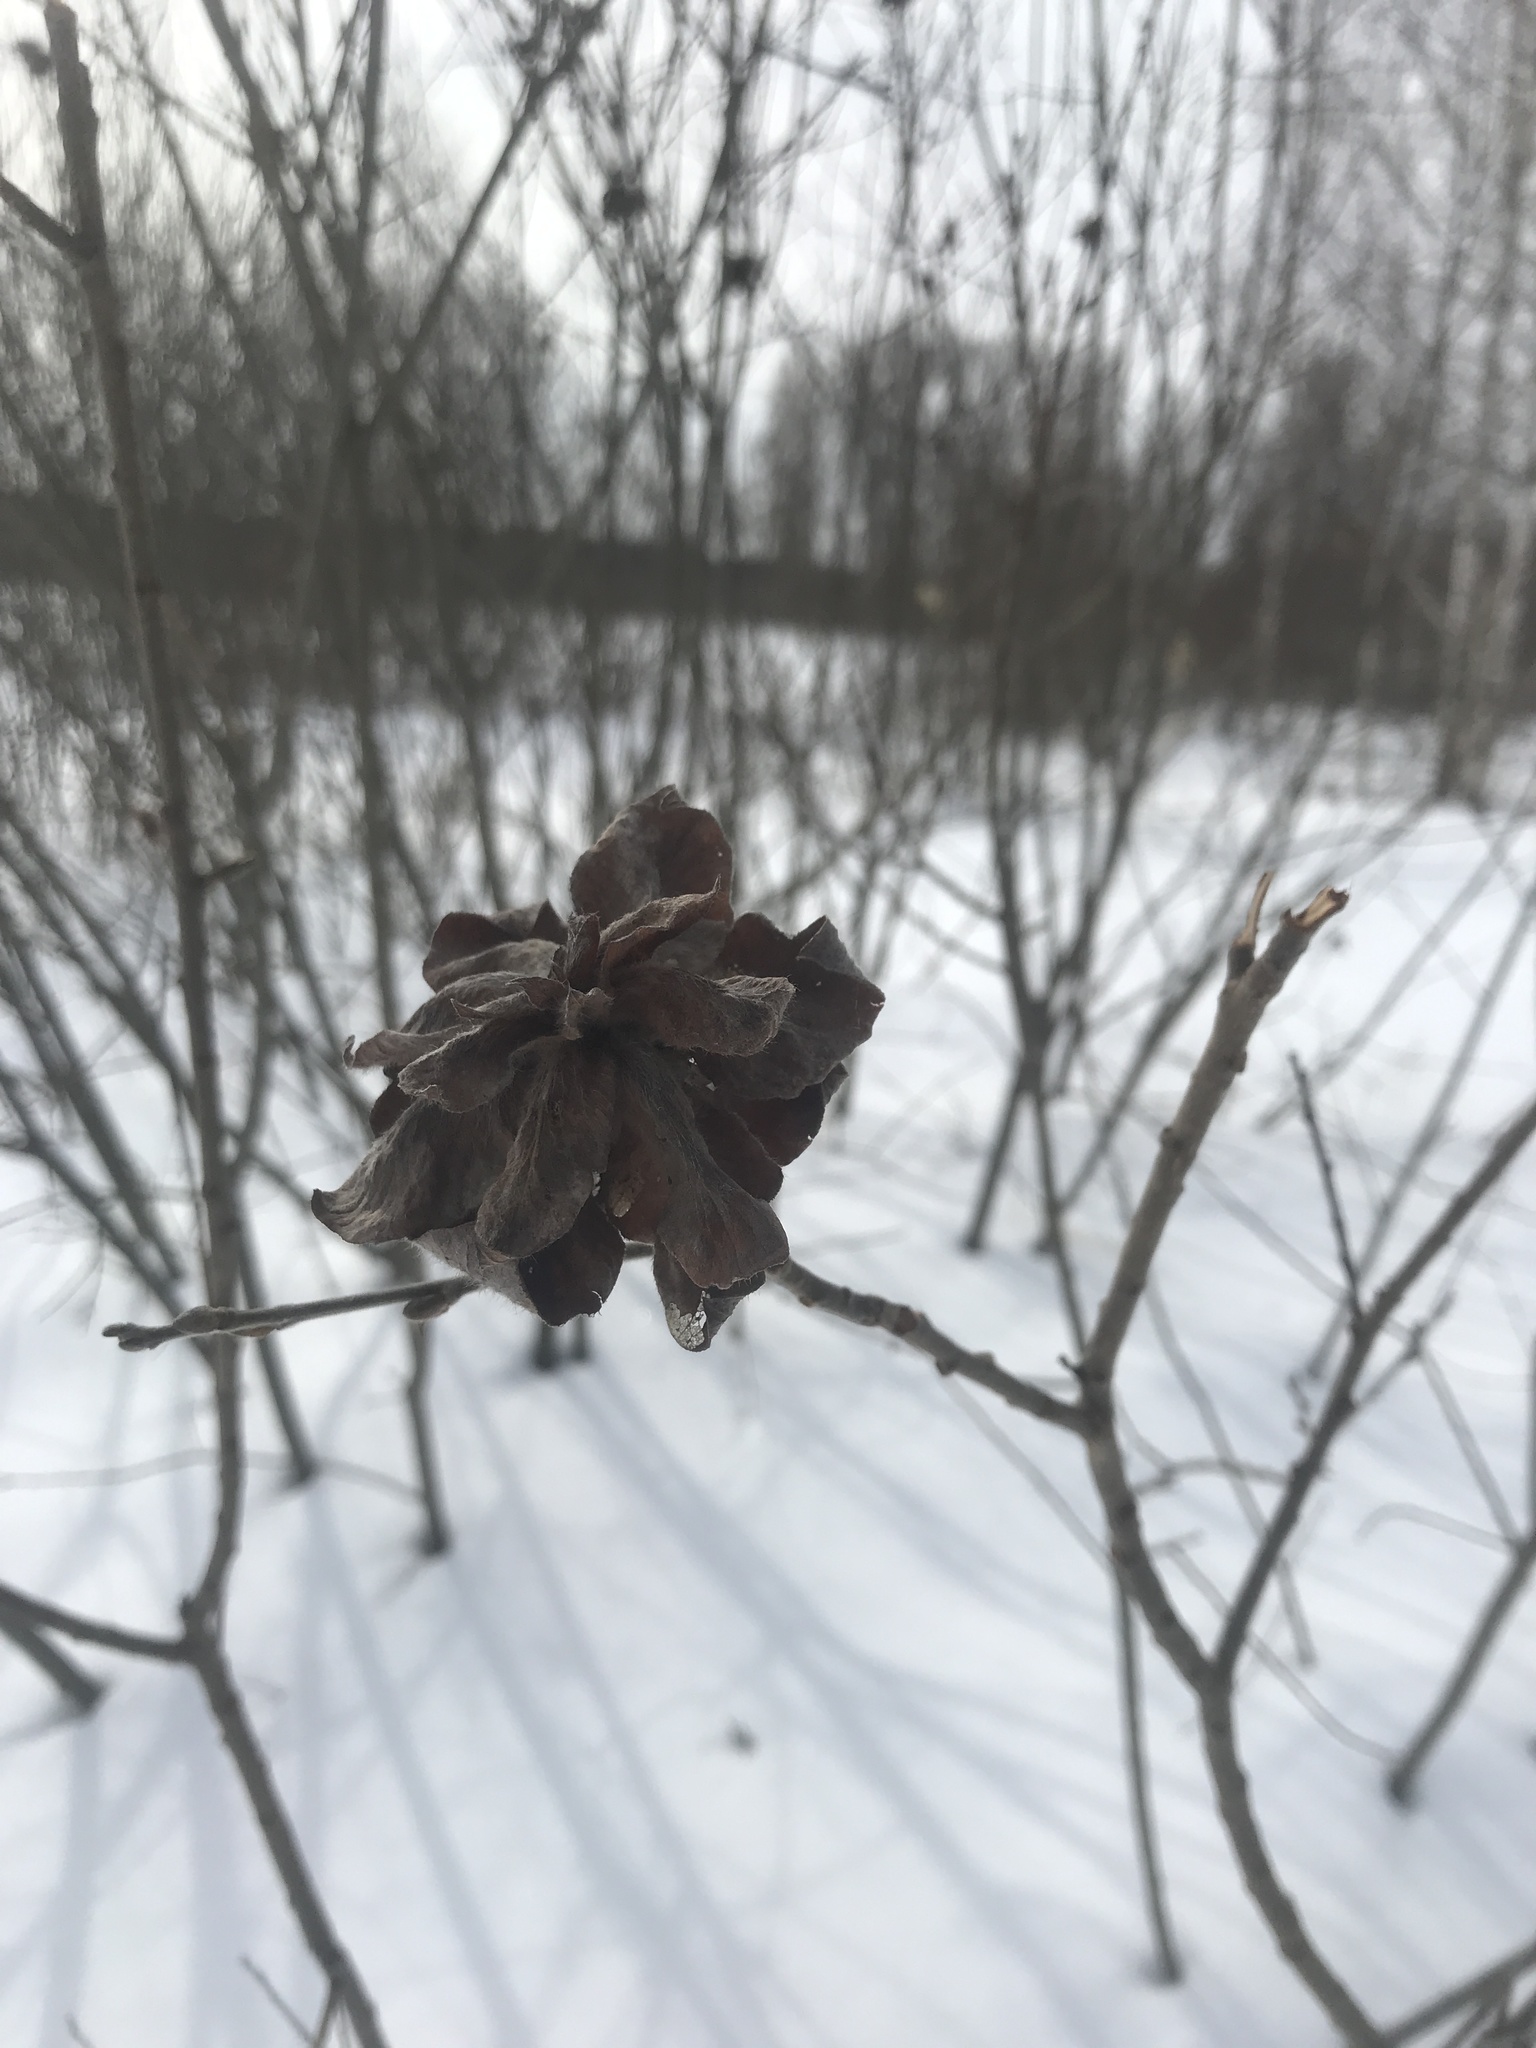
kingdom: Animalia
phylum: Arthropoda
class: Insecta
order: Diptera
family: Cecidomyiidae
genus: Rabdophaga
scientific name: Rabdophaga rosaria
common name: Willow rose gall midge
